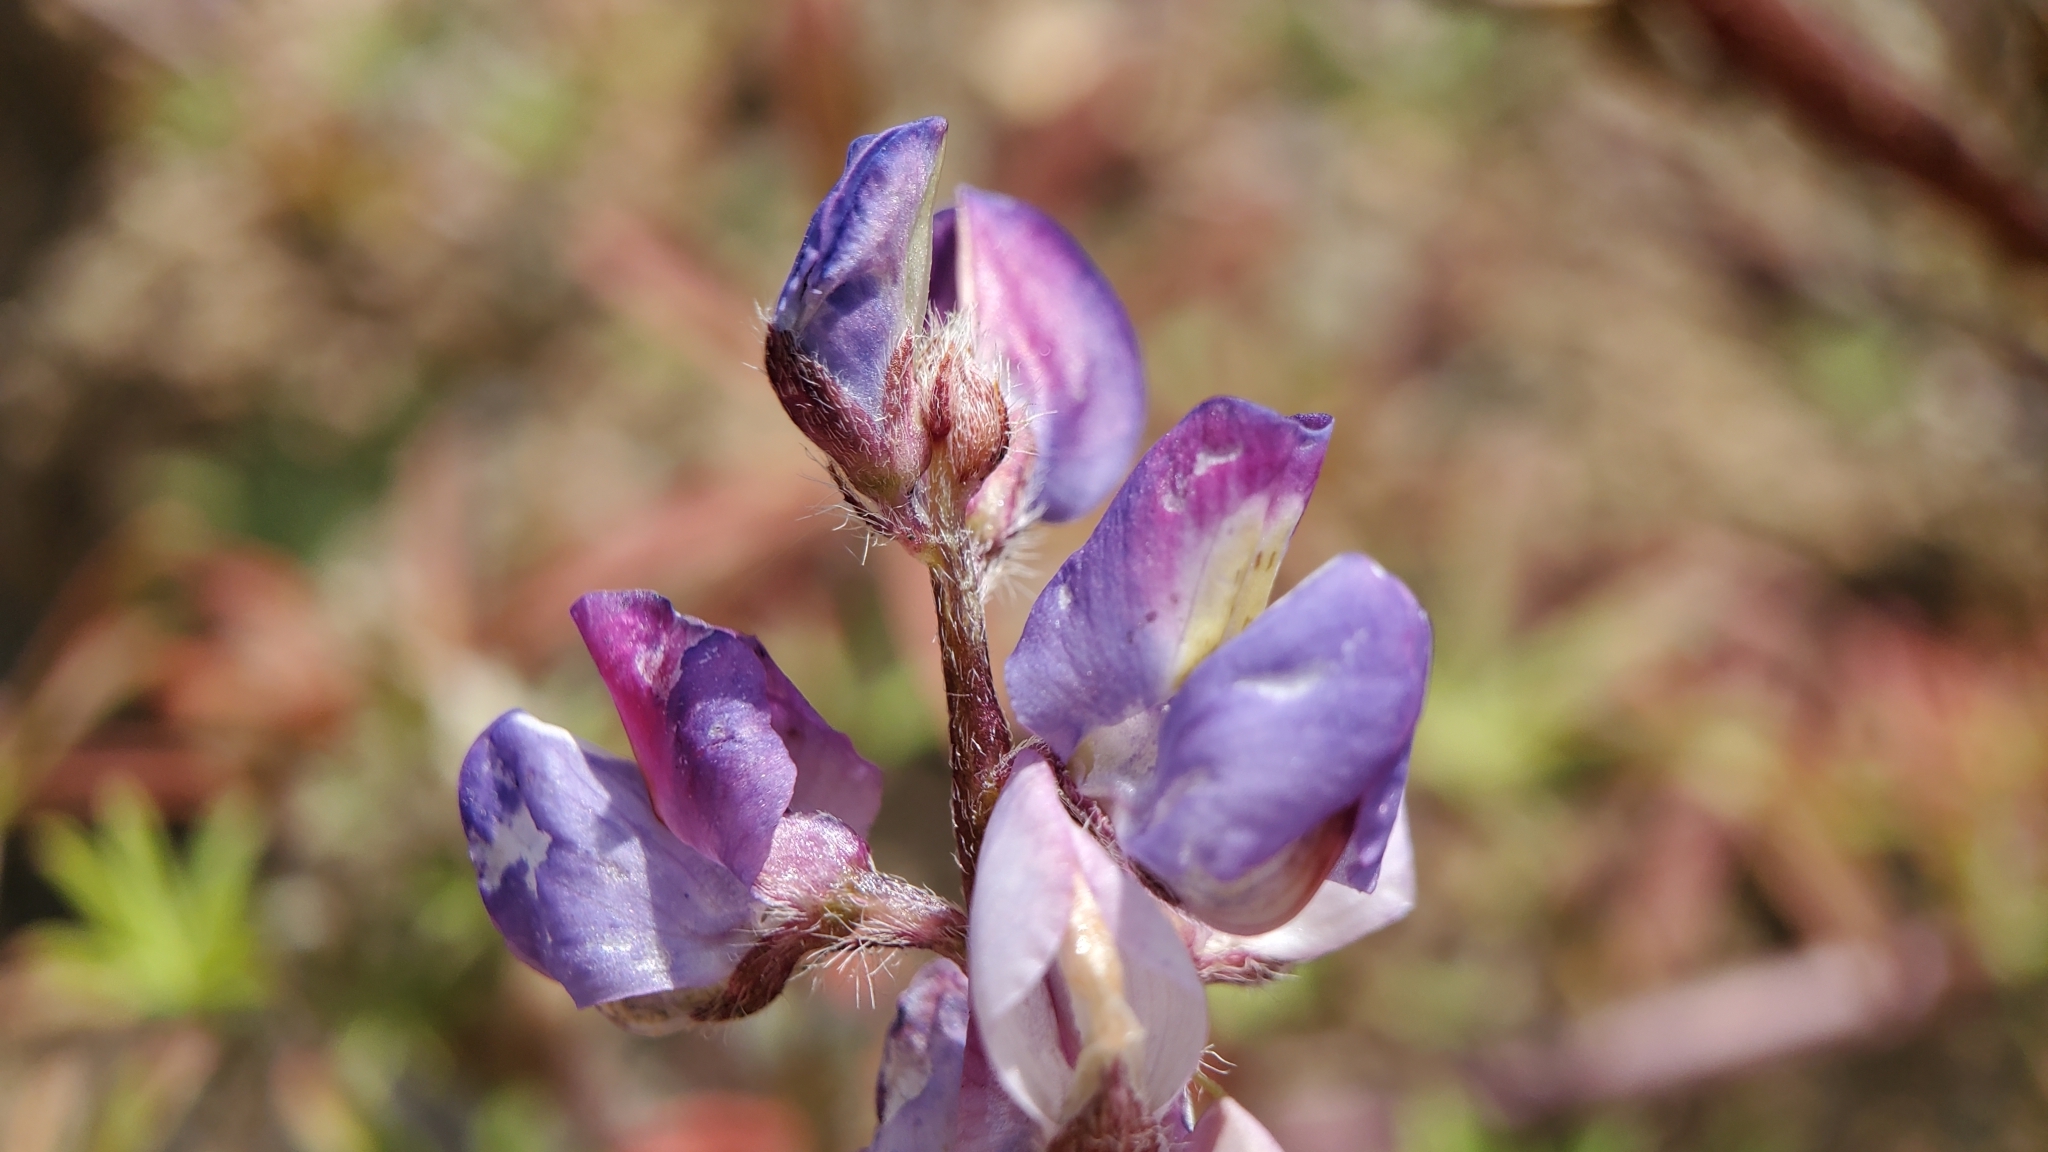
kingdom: Plantae
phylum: Tracheophyta
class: Magnoliopsida
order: Fabales
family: Fabaceae
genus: Lupinus
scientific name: Lupinus sparsiflorus
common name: Coulter's lupine
